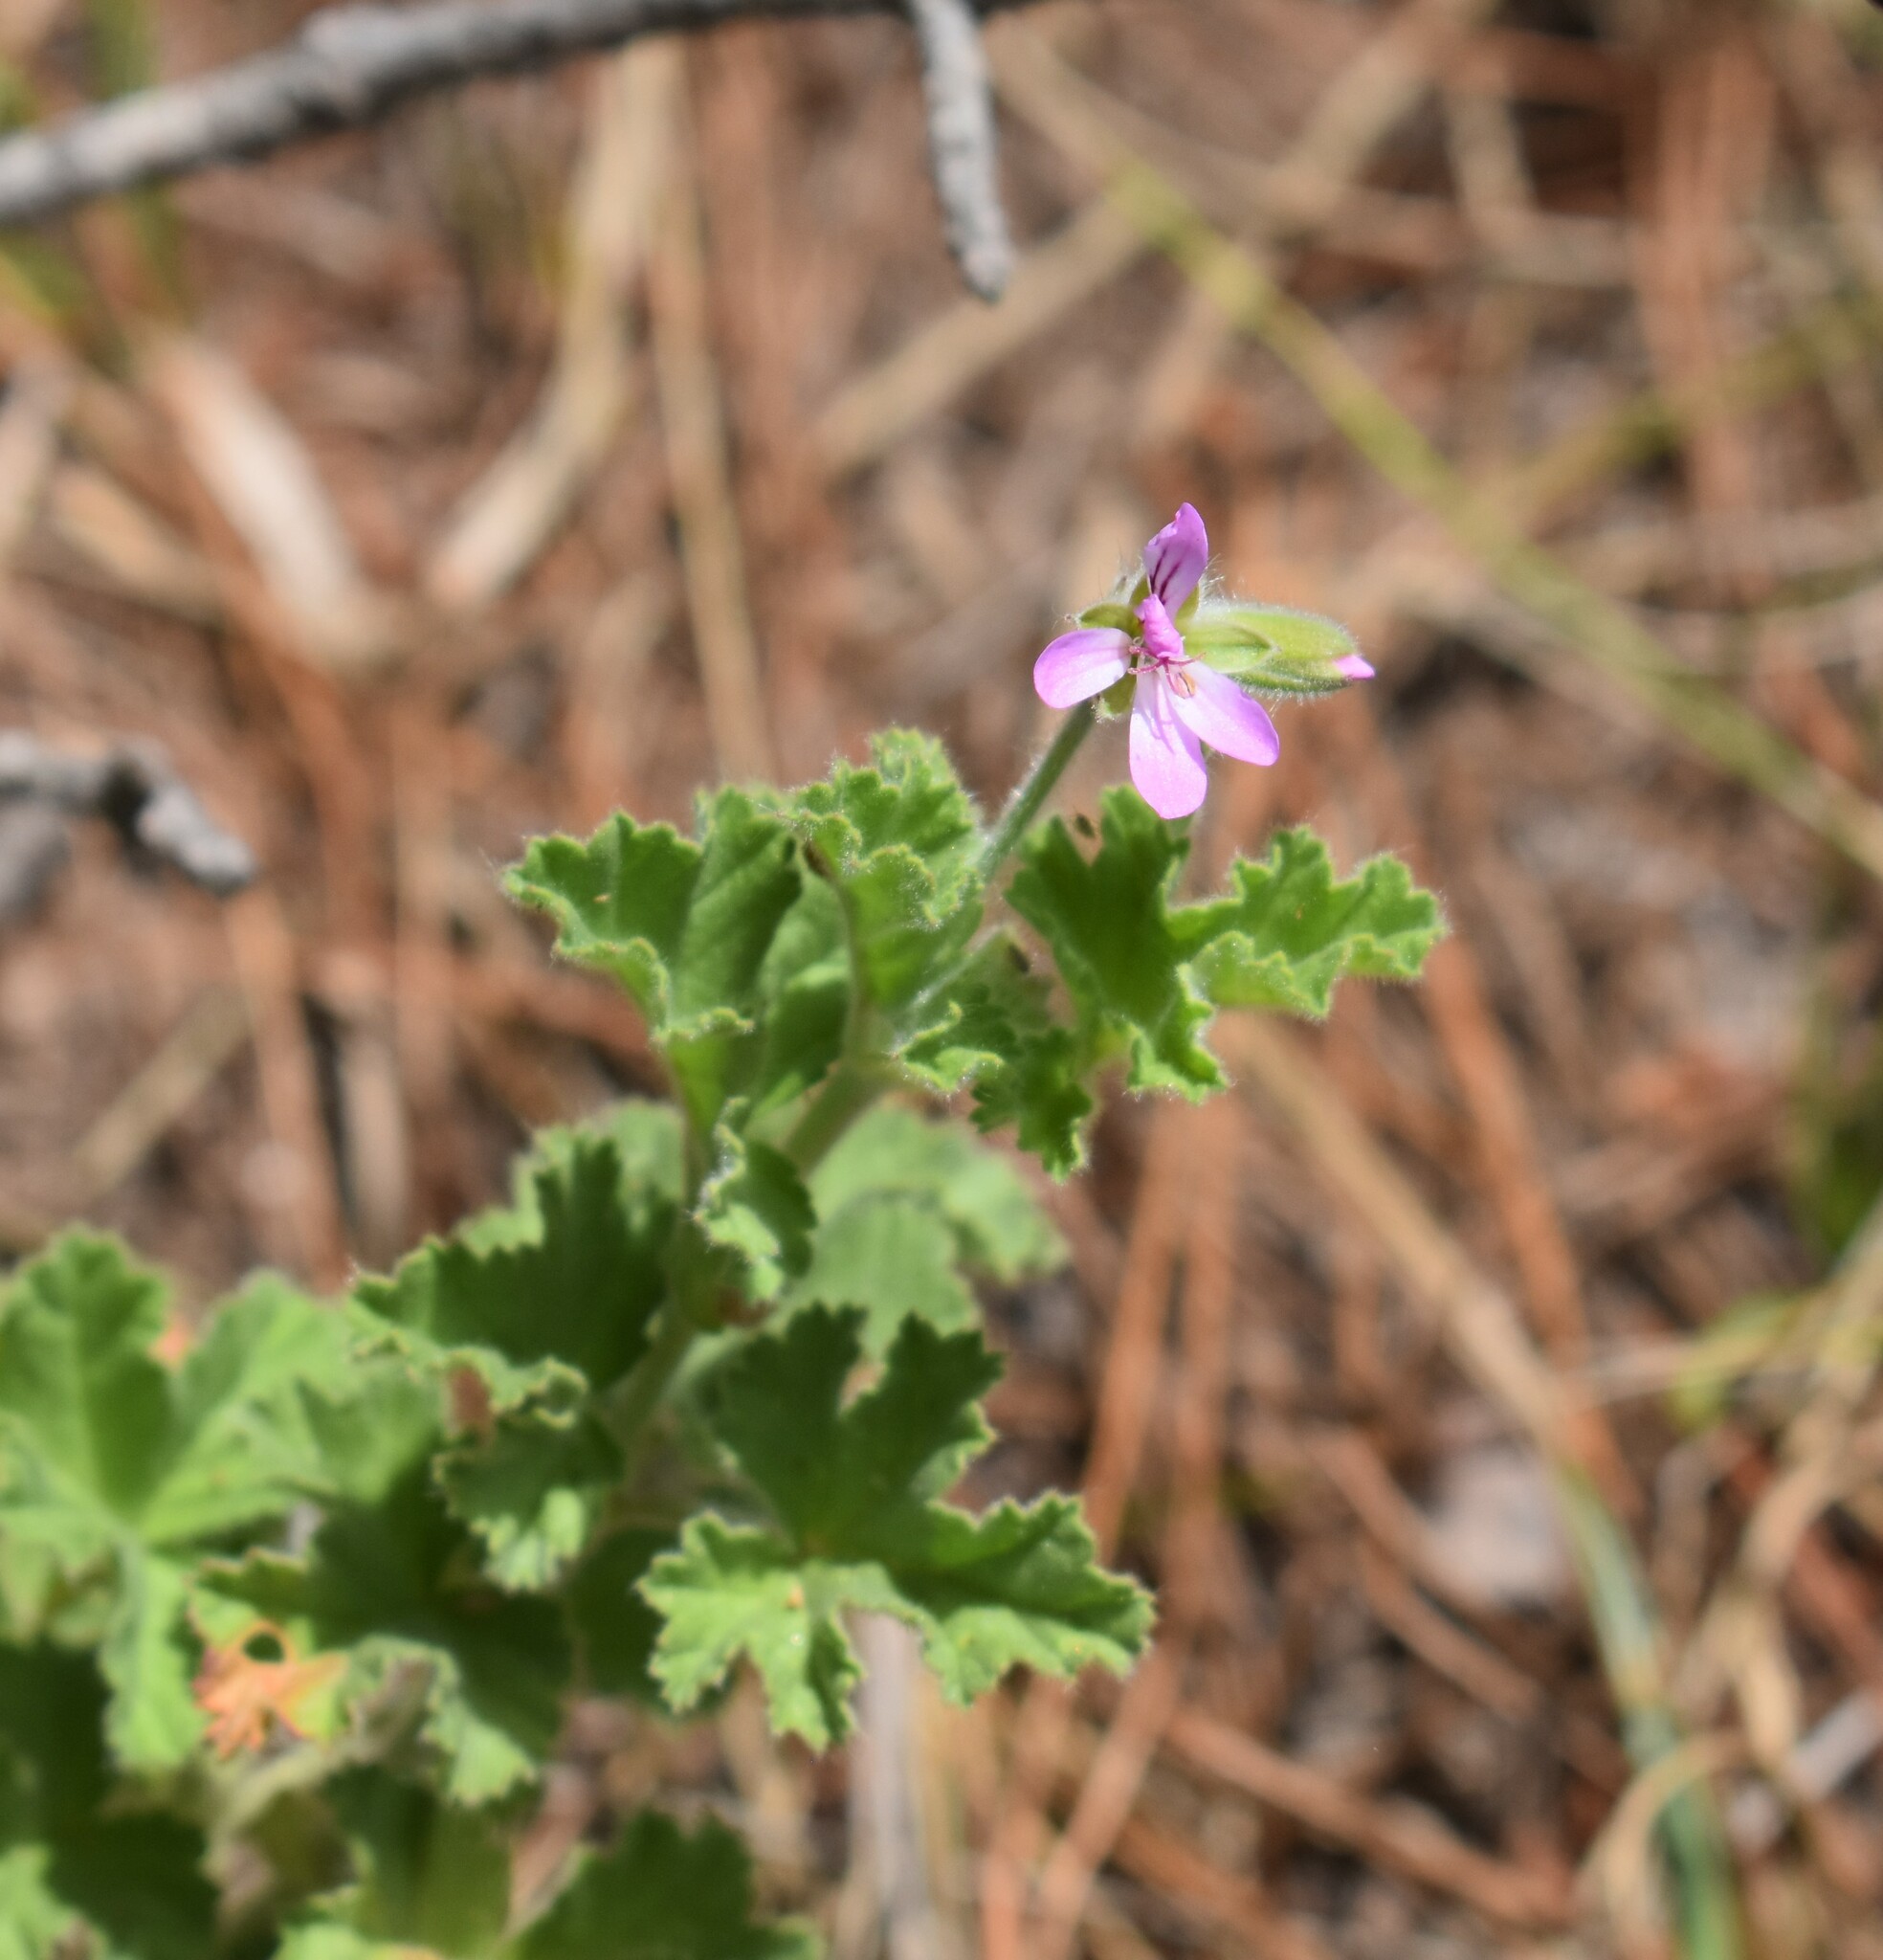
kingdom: Plantae
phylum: Tracheophyta
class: Magnoliopsida
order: Geraniales
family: Geraniaceae
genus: Pelargonium
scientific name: Pelargonium capitatum
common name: Rose scented geranium
